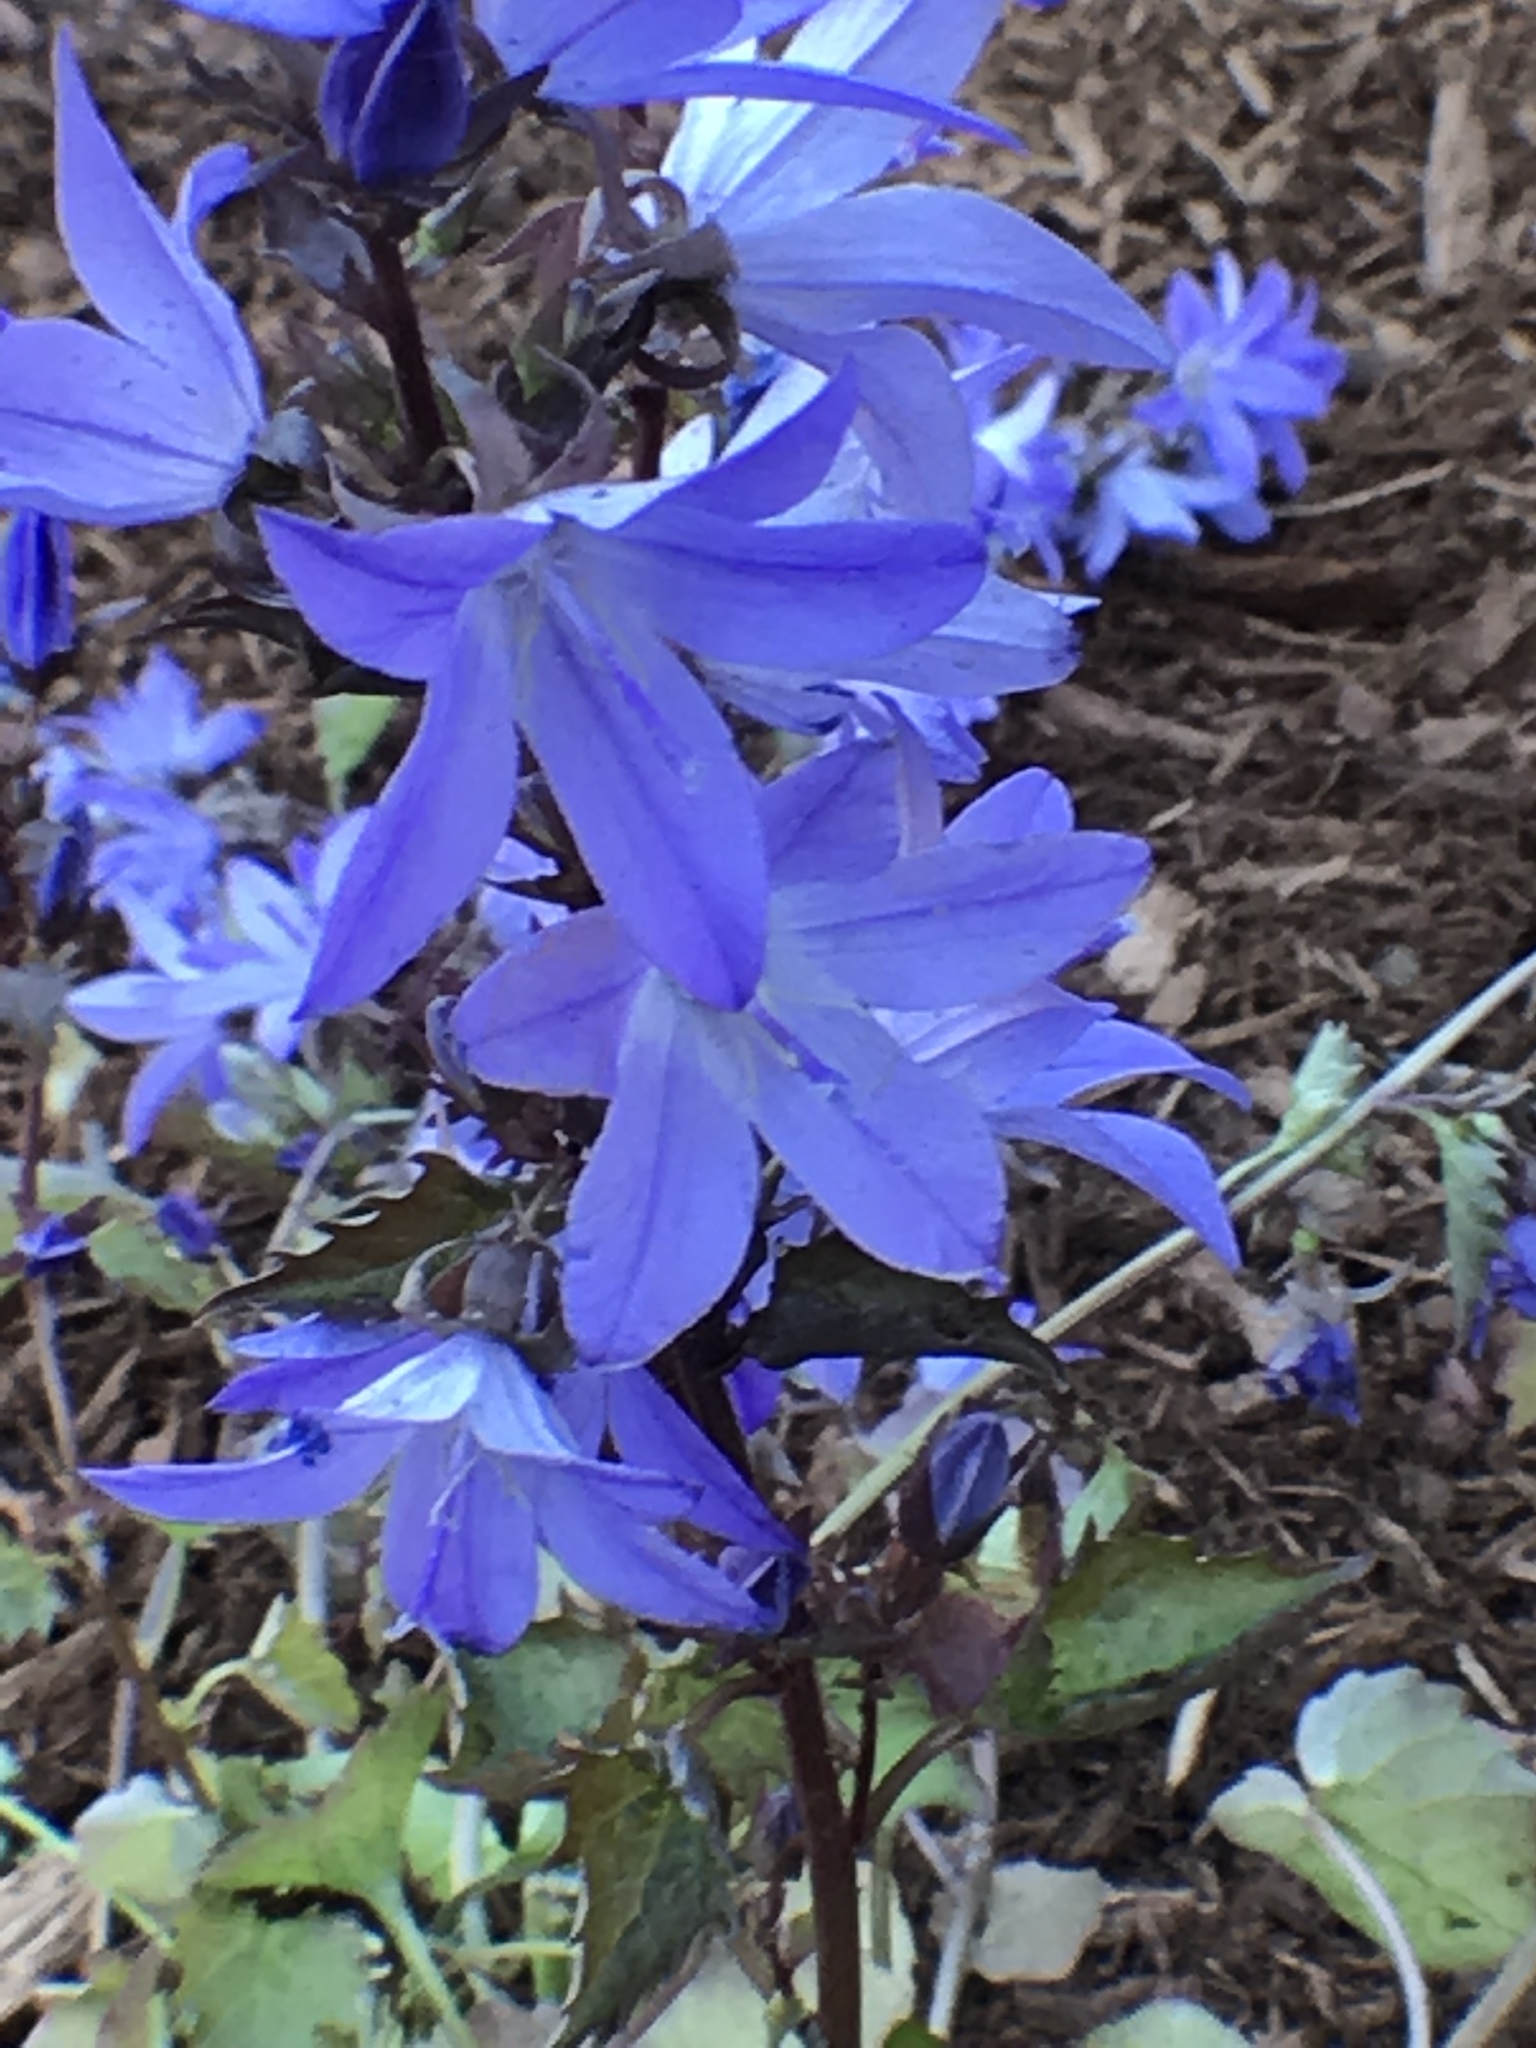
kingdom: Plantae
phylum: Tracheophyta
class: Magnoliopsida
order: Asterales
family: Campanulaceae
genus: Campanula
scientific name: Campanula poscharskyana
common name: Trailing bellflower
